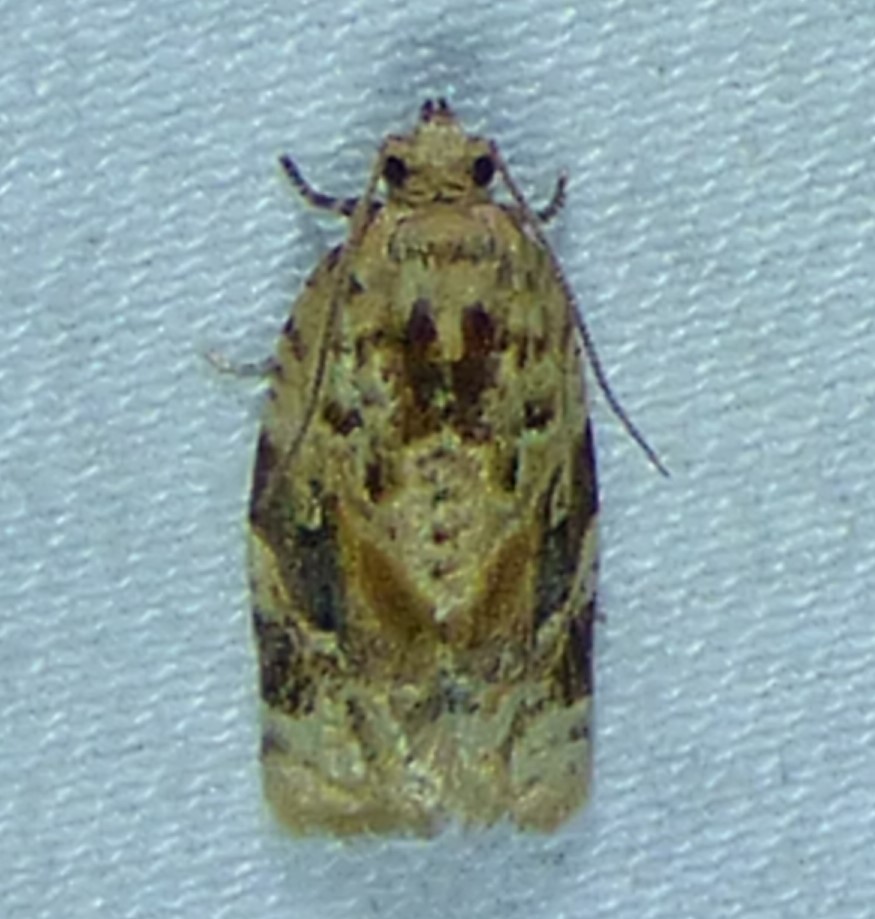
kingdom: Animalia
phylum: Arthropoda
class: Insecta
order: Lepidoptera
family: Tortricidae
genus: Argyrotaenia
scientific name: Argyrotaenia velutinana
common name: Red-banded leafroller moth
